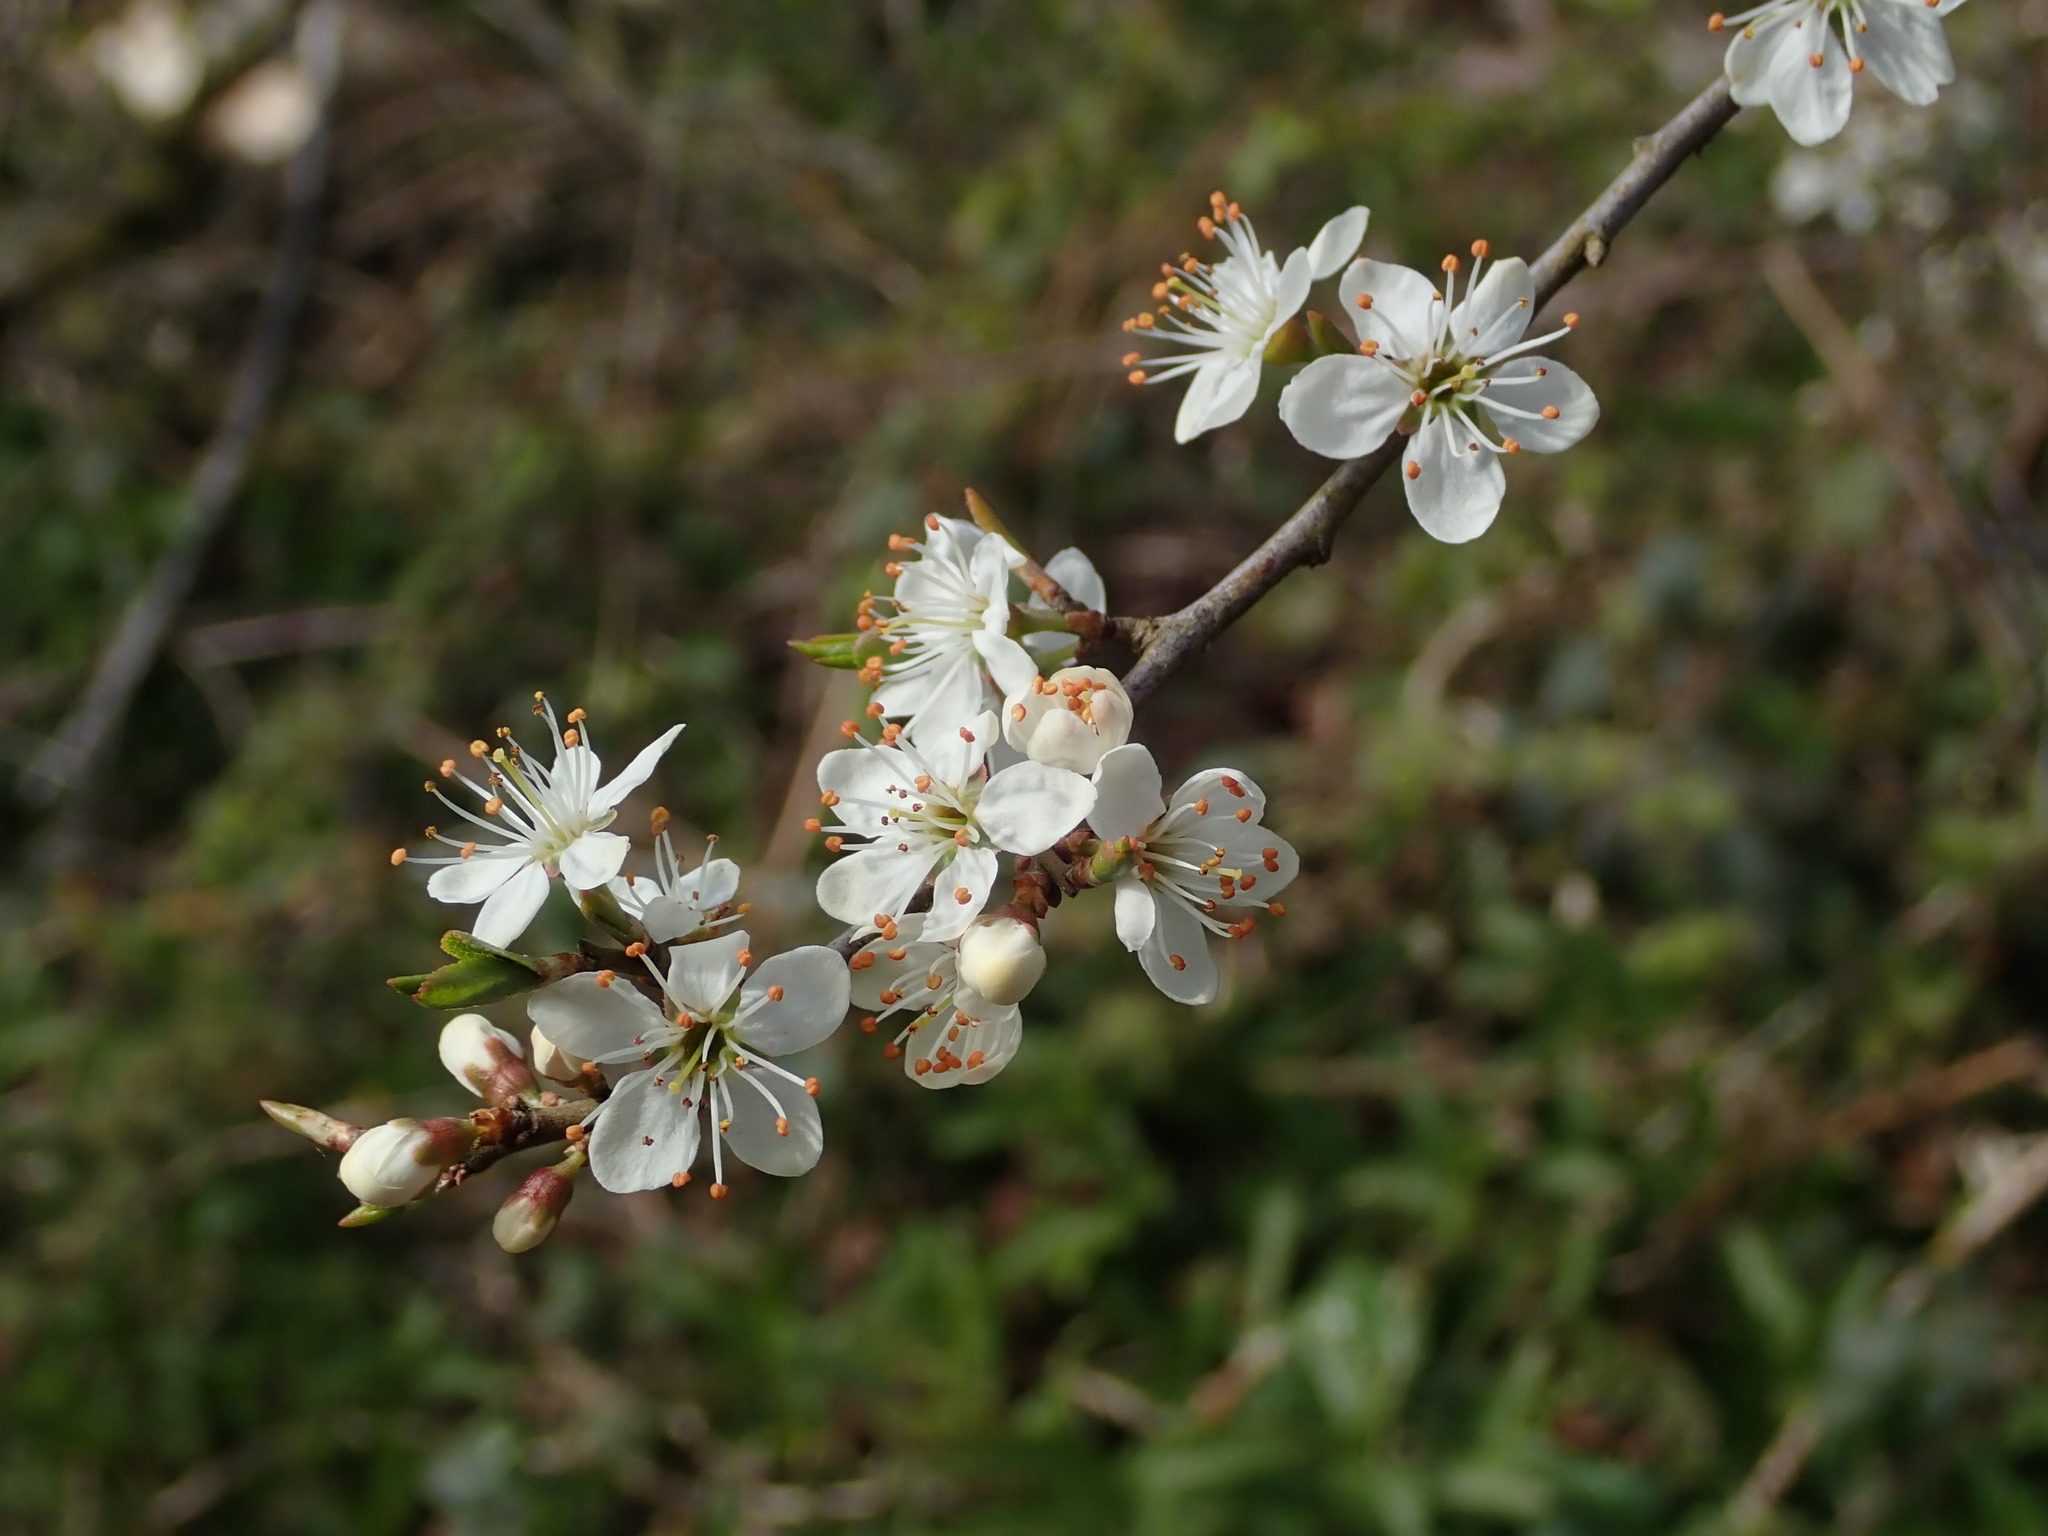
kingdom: Plantae
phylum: Tracheophyta
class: Magnoliopsida
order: Rosales
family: Rosaceae
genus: Prunus
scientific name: Prunus spinosa
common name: Blackthorn
